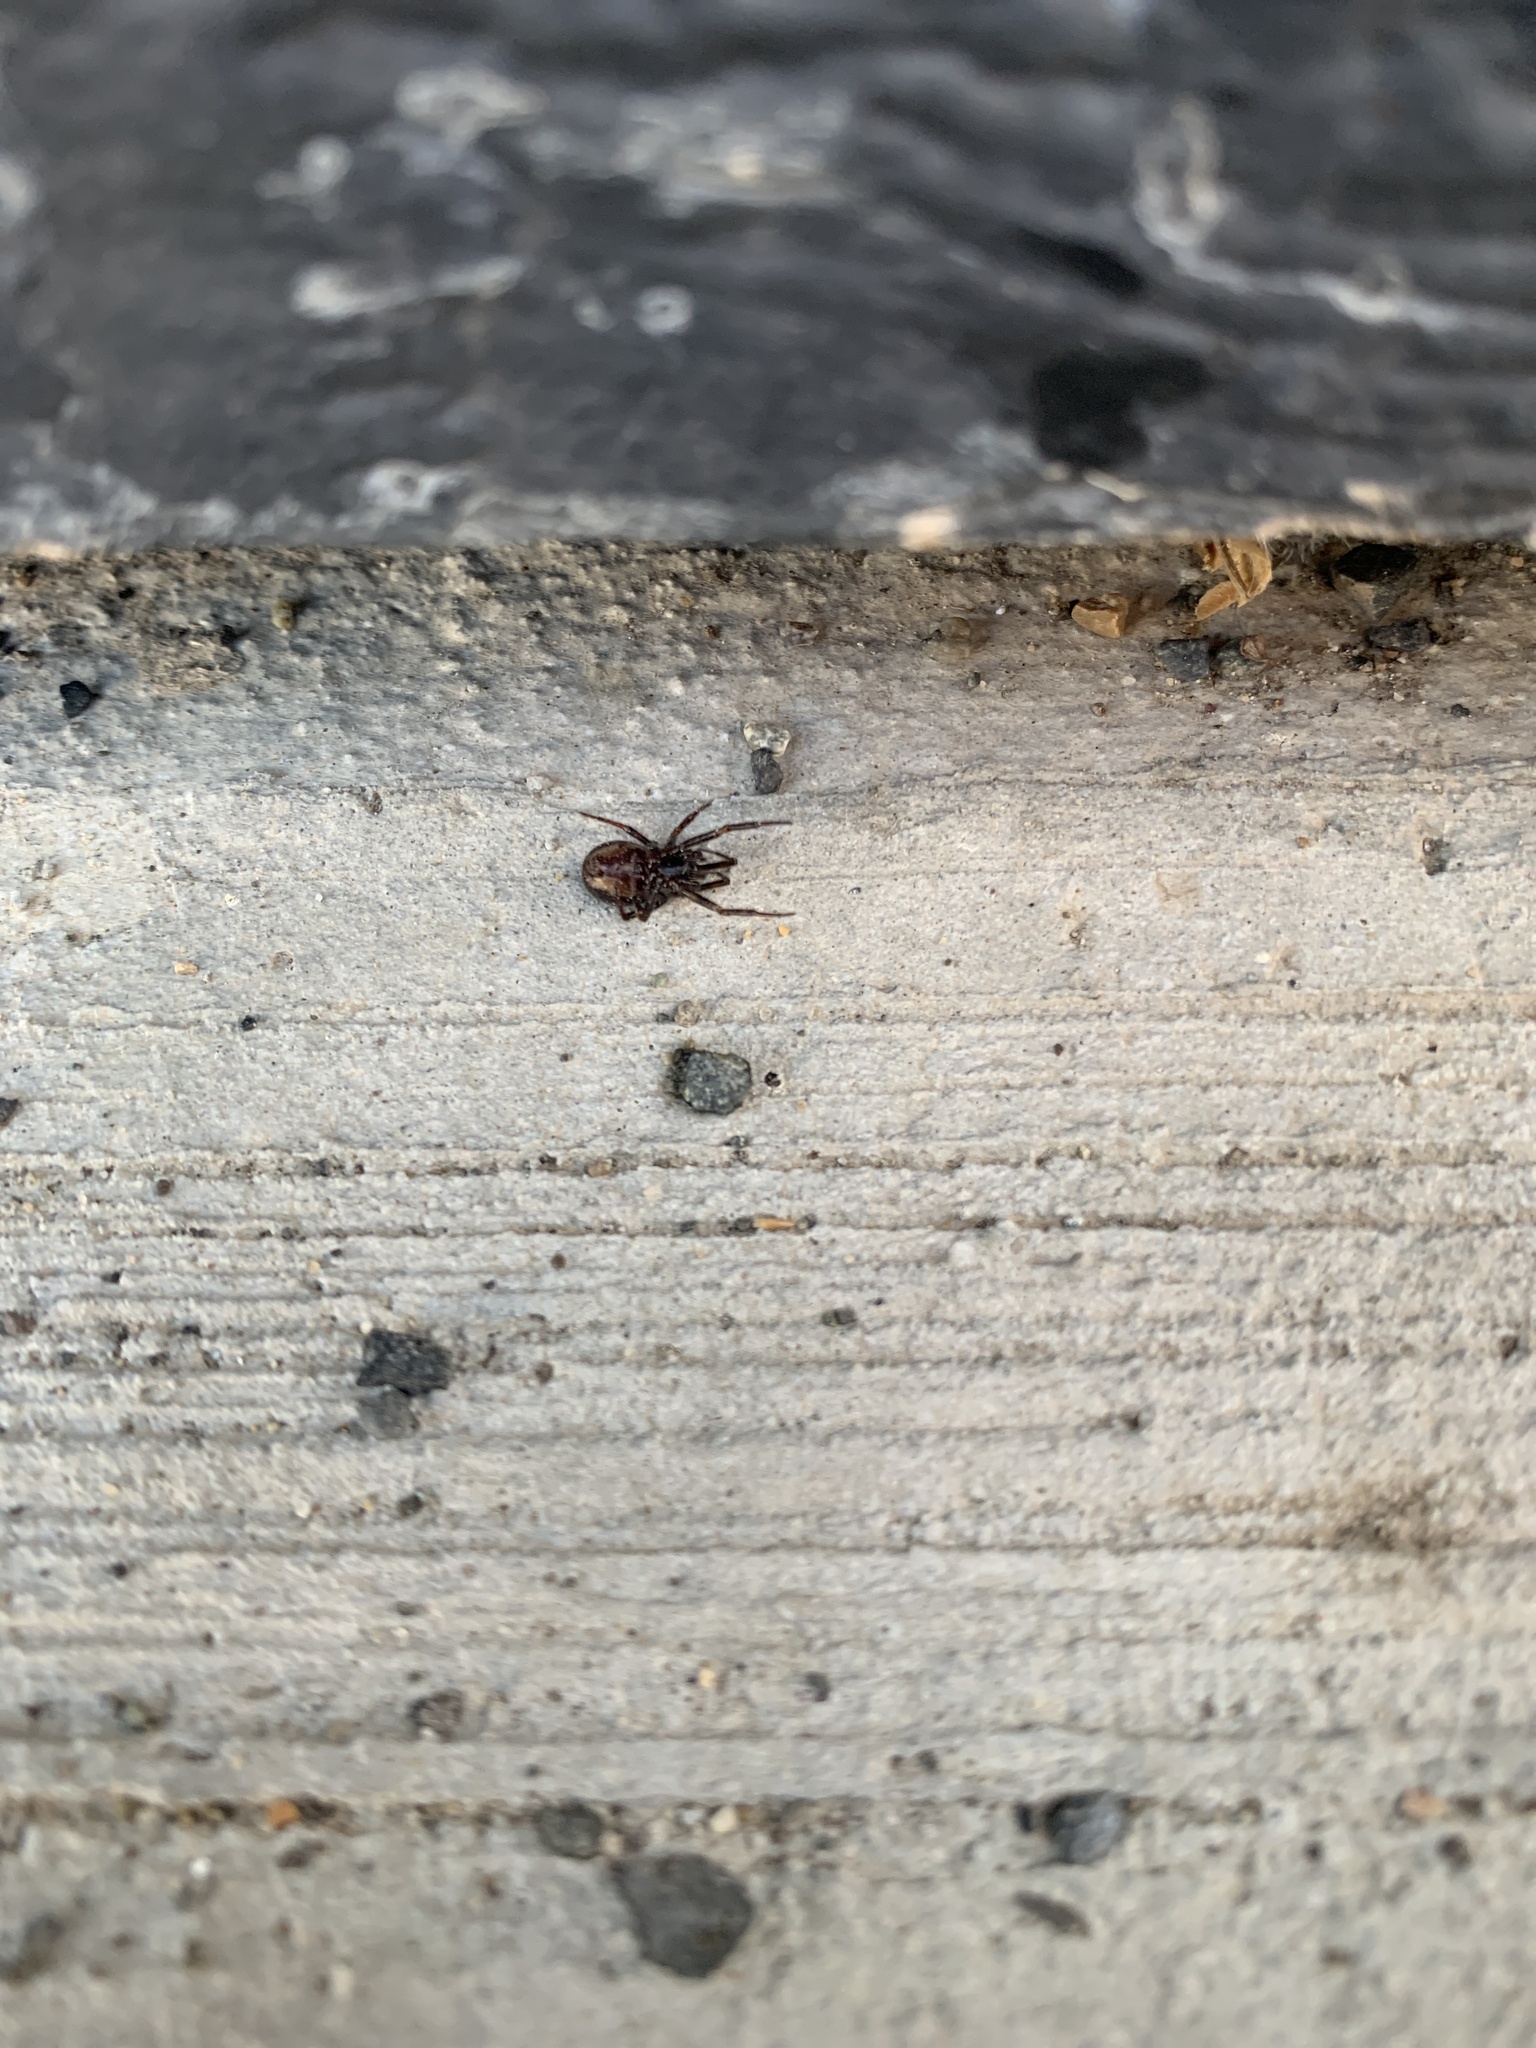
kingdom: Animalia
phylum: Arthropoda
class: Arachnida
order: Araneae
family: Theridiidae
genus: Steatoda
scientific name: Steatoda hespera
